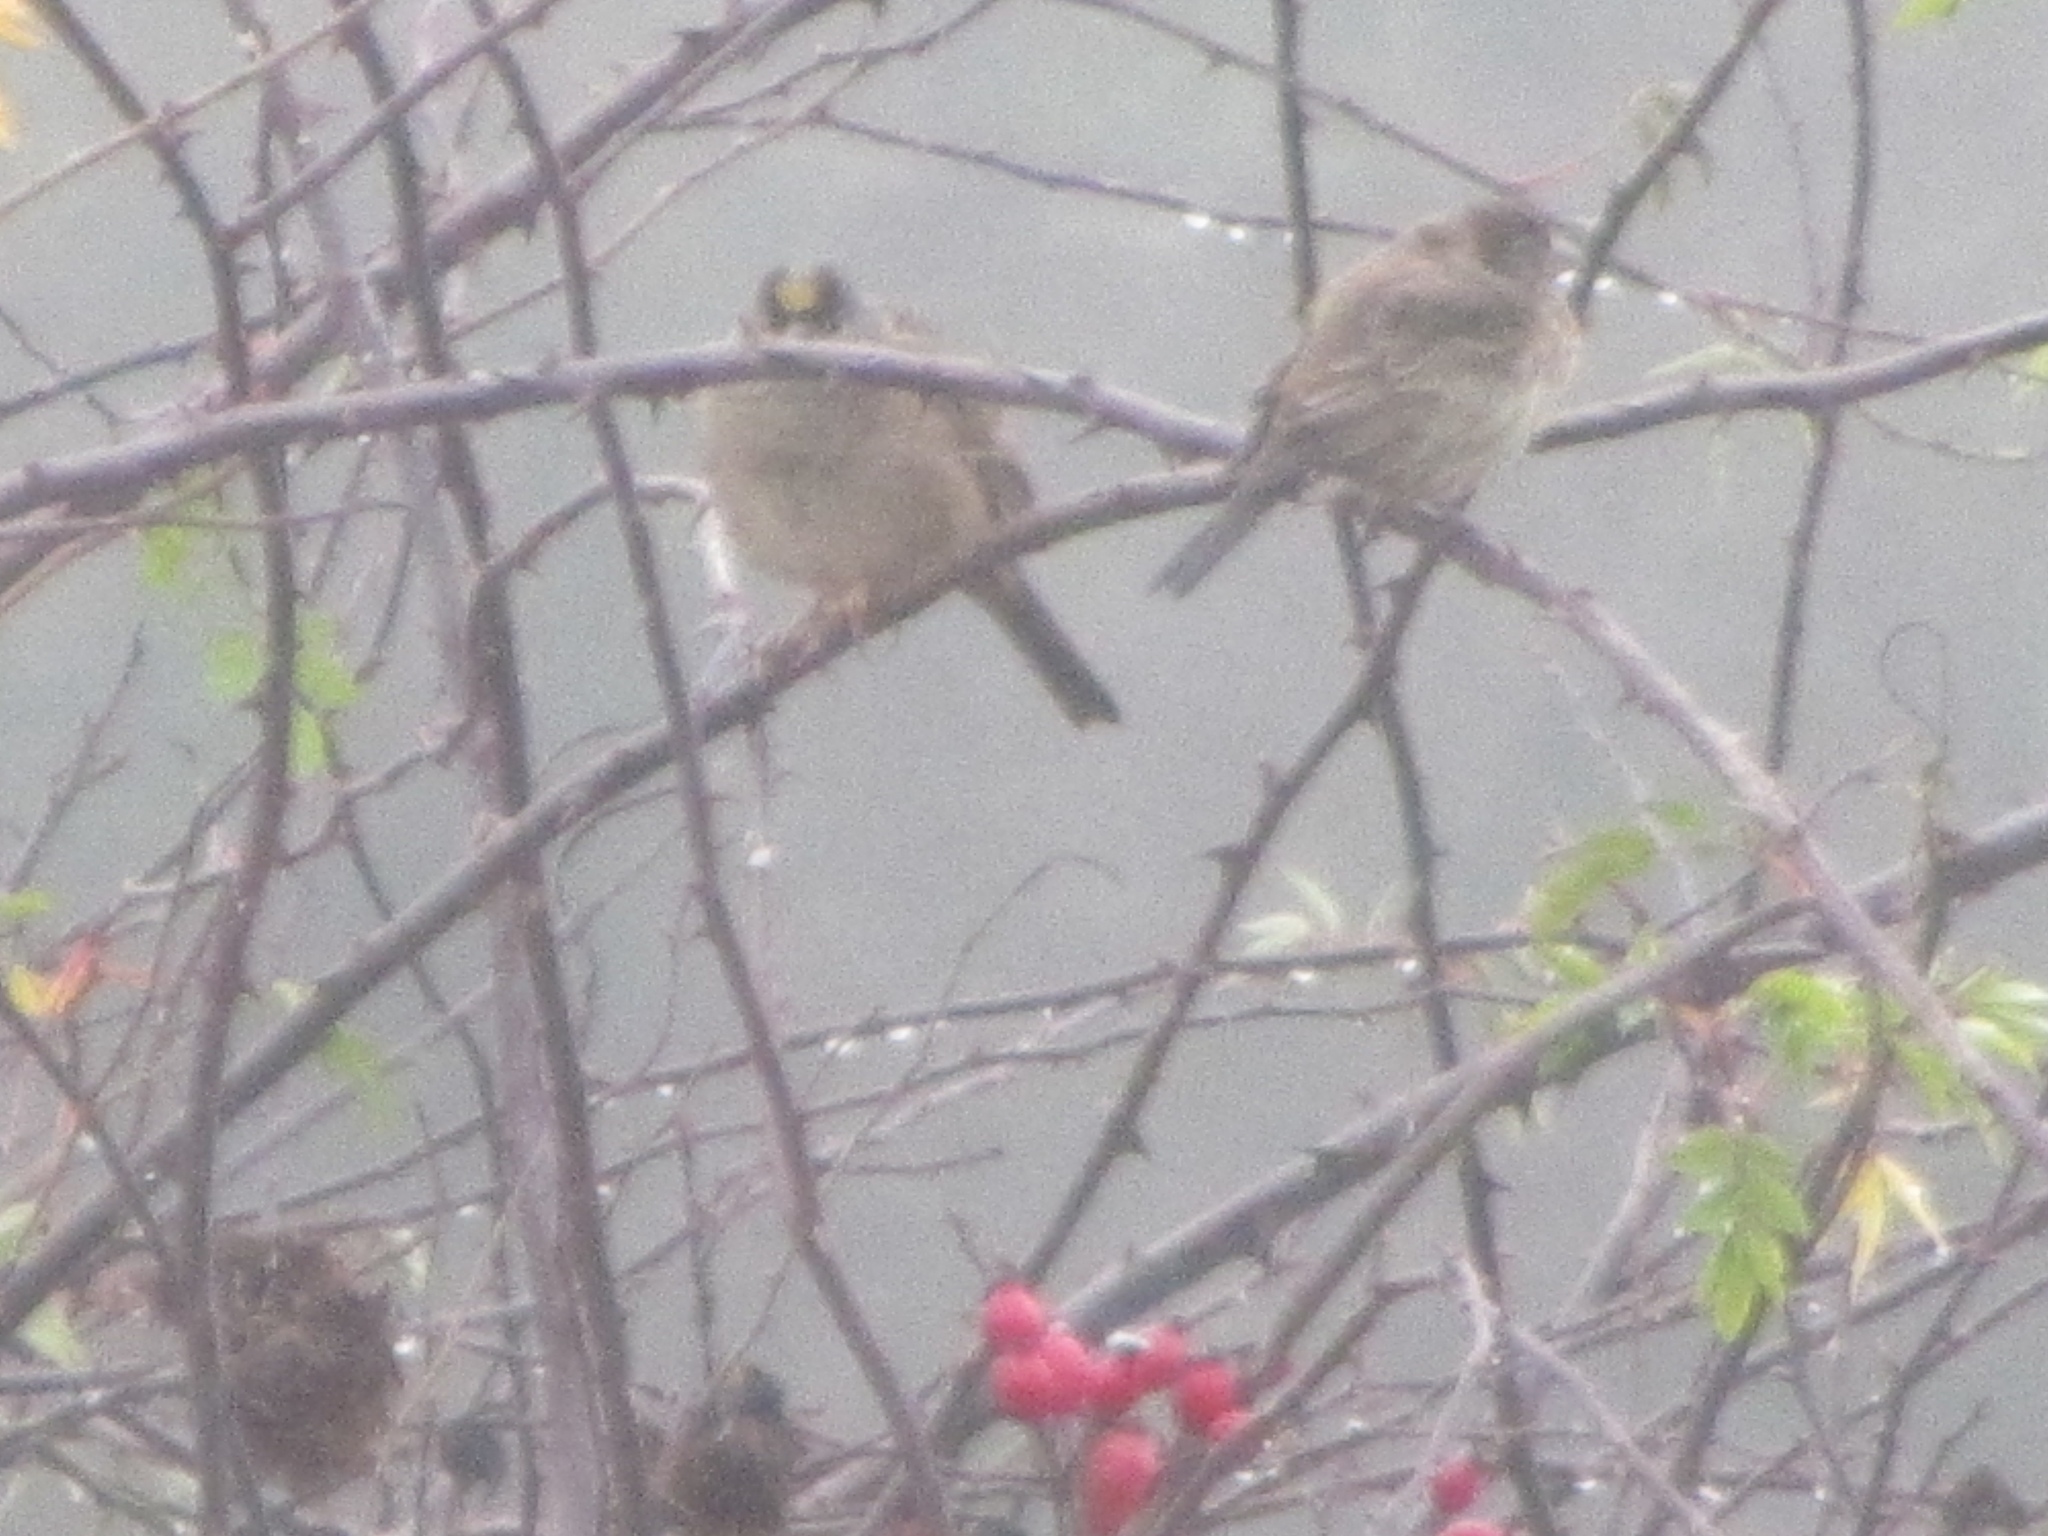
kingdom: Animalia
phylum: Chordata
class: Aves
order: Passeriformes
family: Passerellidae
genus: Zonotrichia
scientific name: Zonotrichia atricapilla
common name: Golden-crowned sparrow
